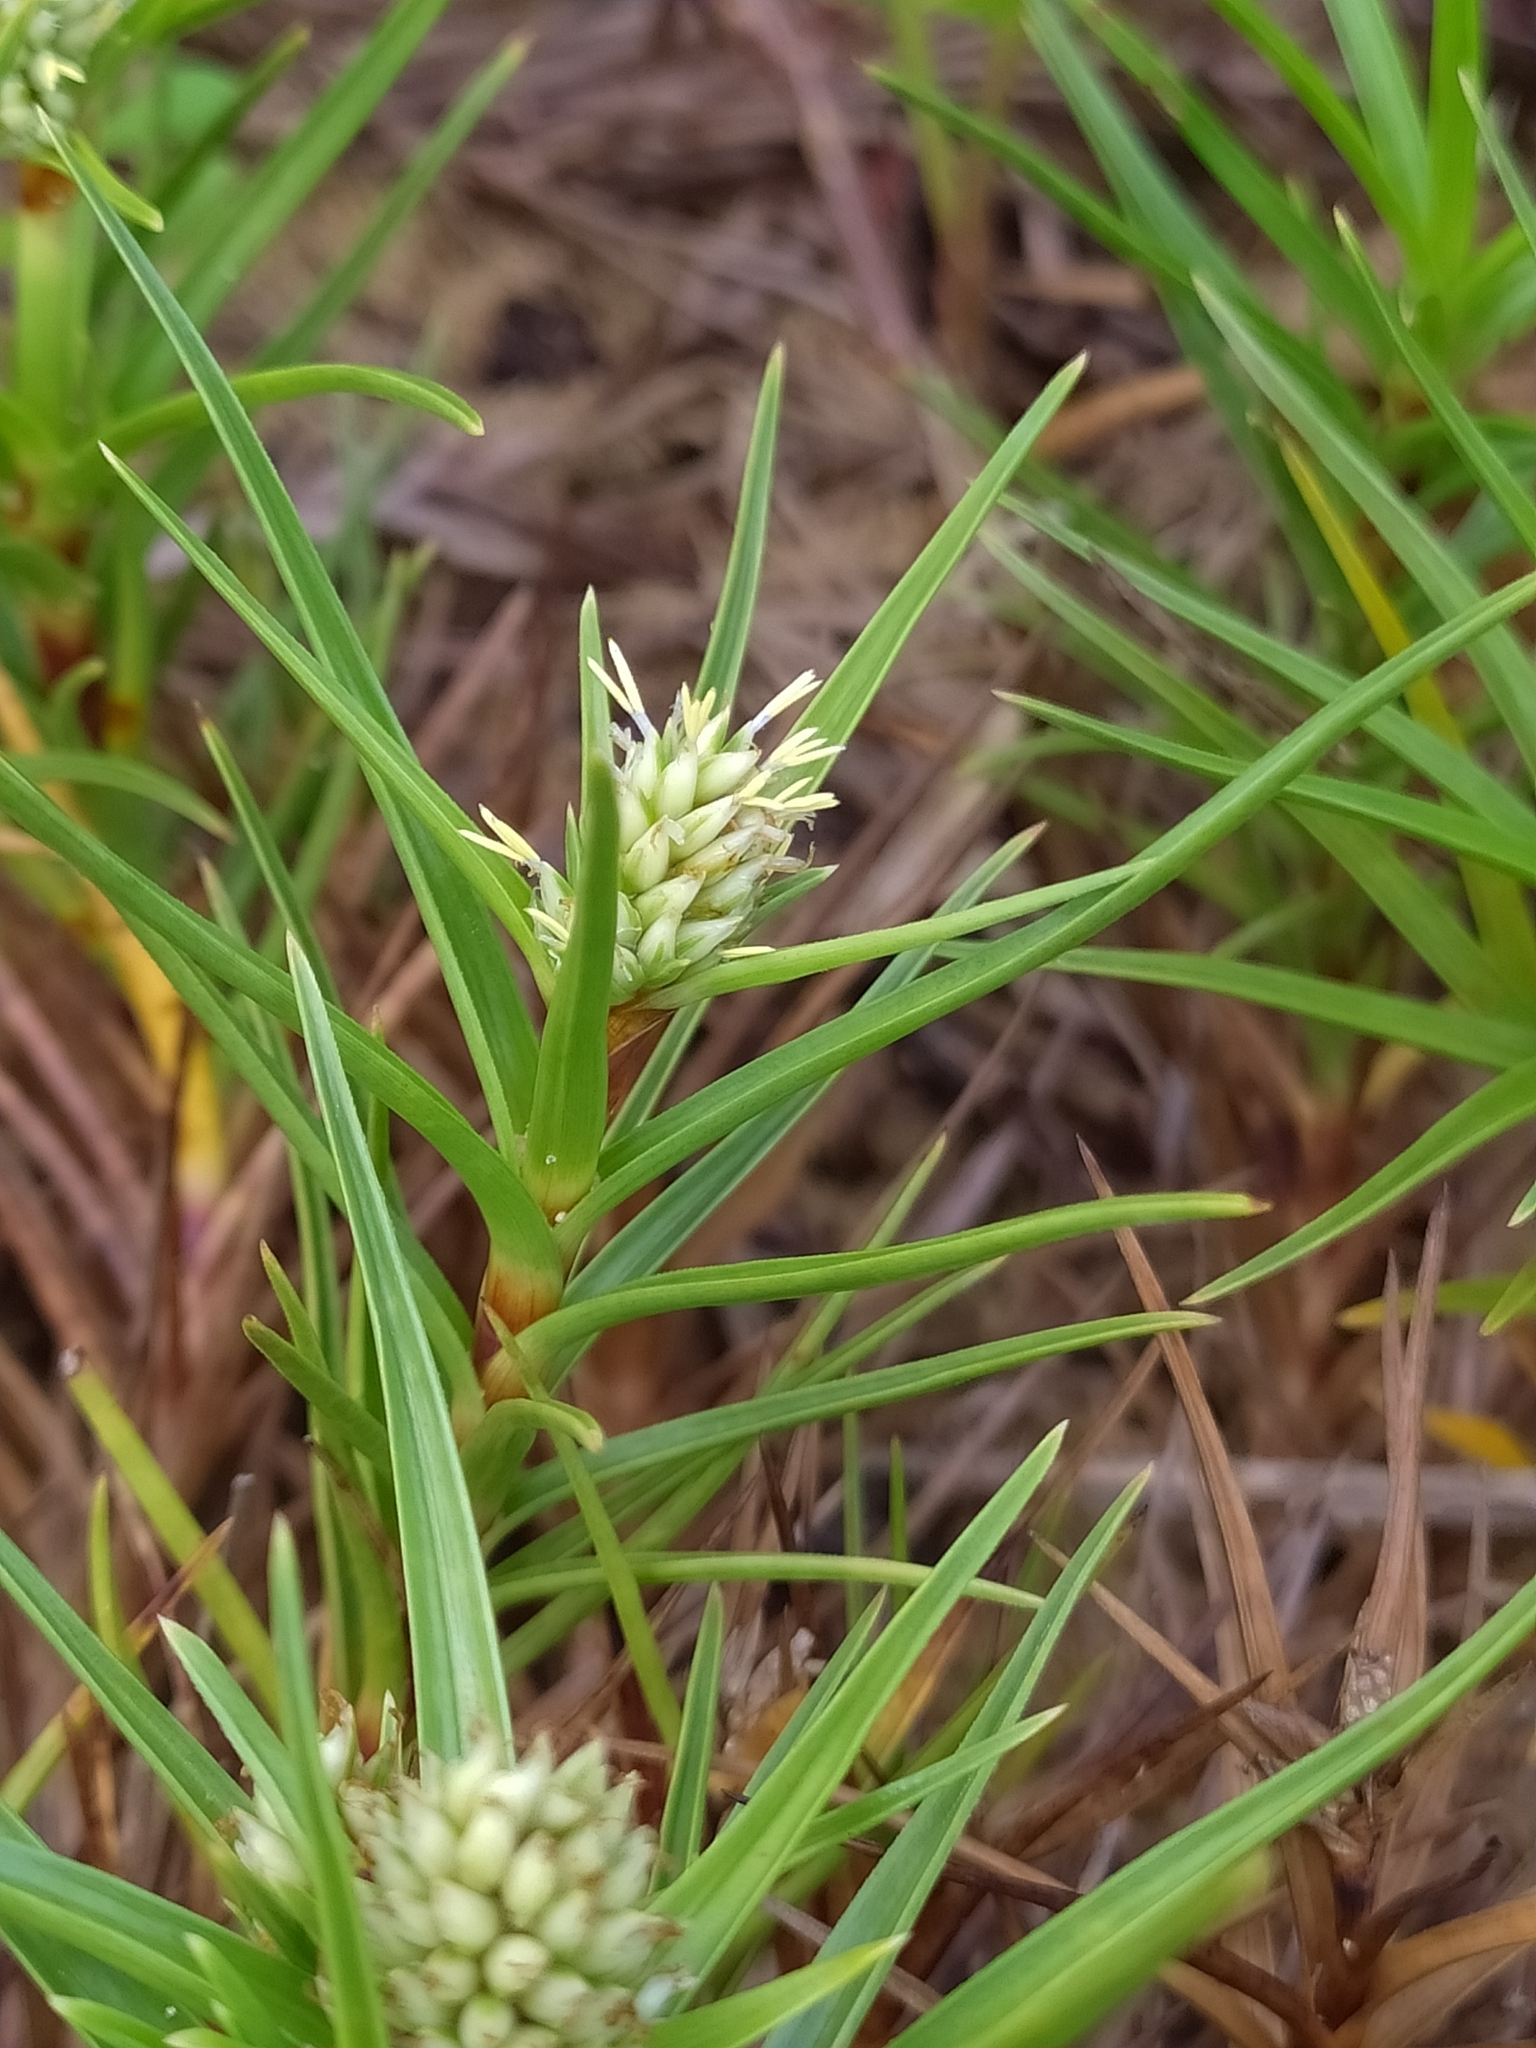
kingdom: Plantae
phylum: Tracheophyta
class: Liliopsida
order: Poales
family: Cyperaceae
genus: Cyperus
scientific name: Cyperus pedunculatus
